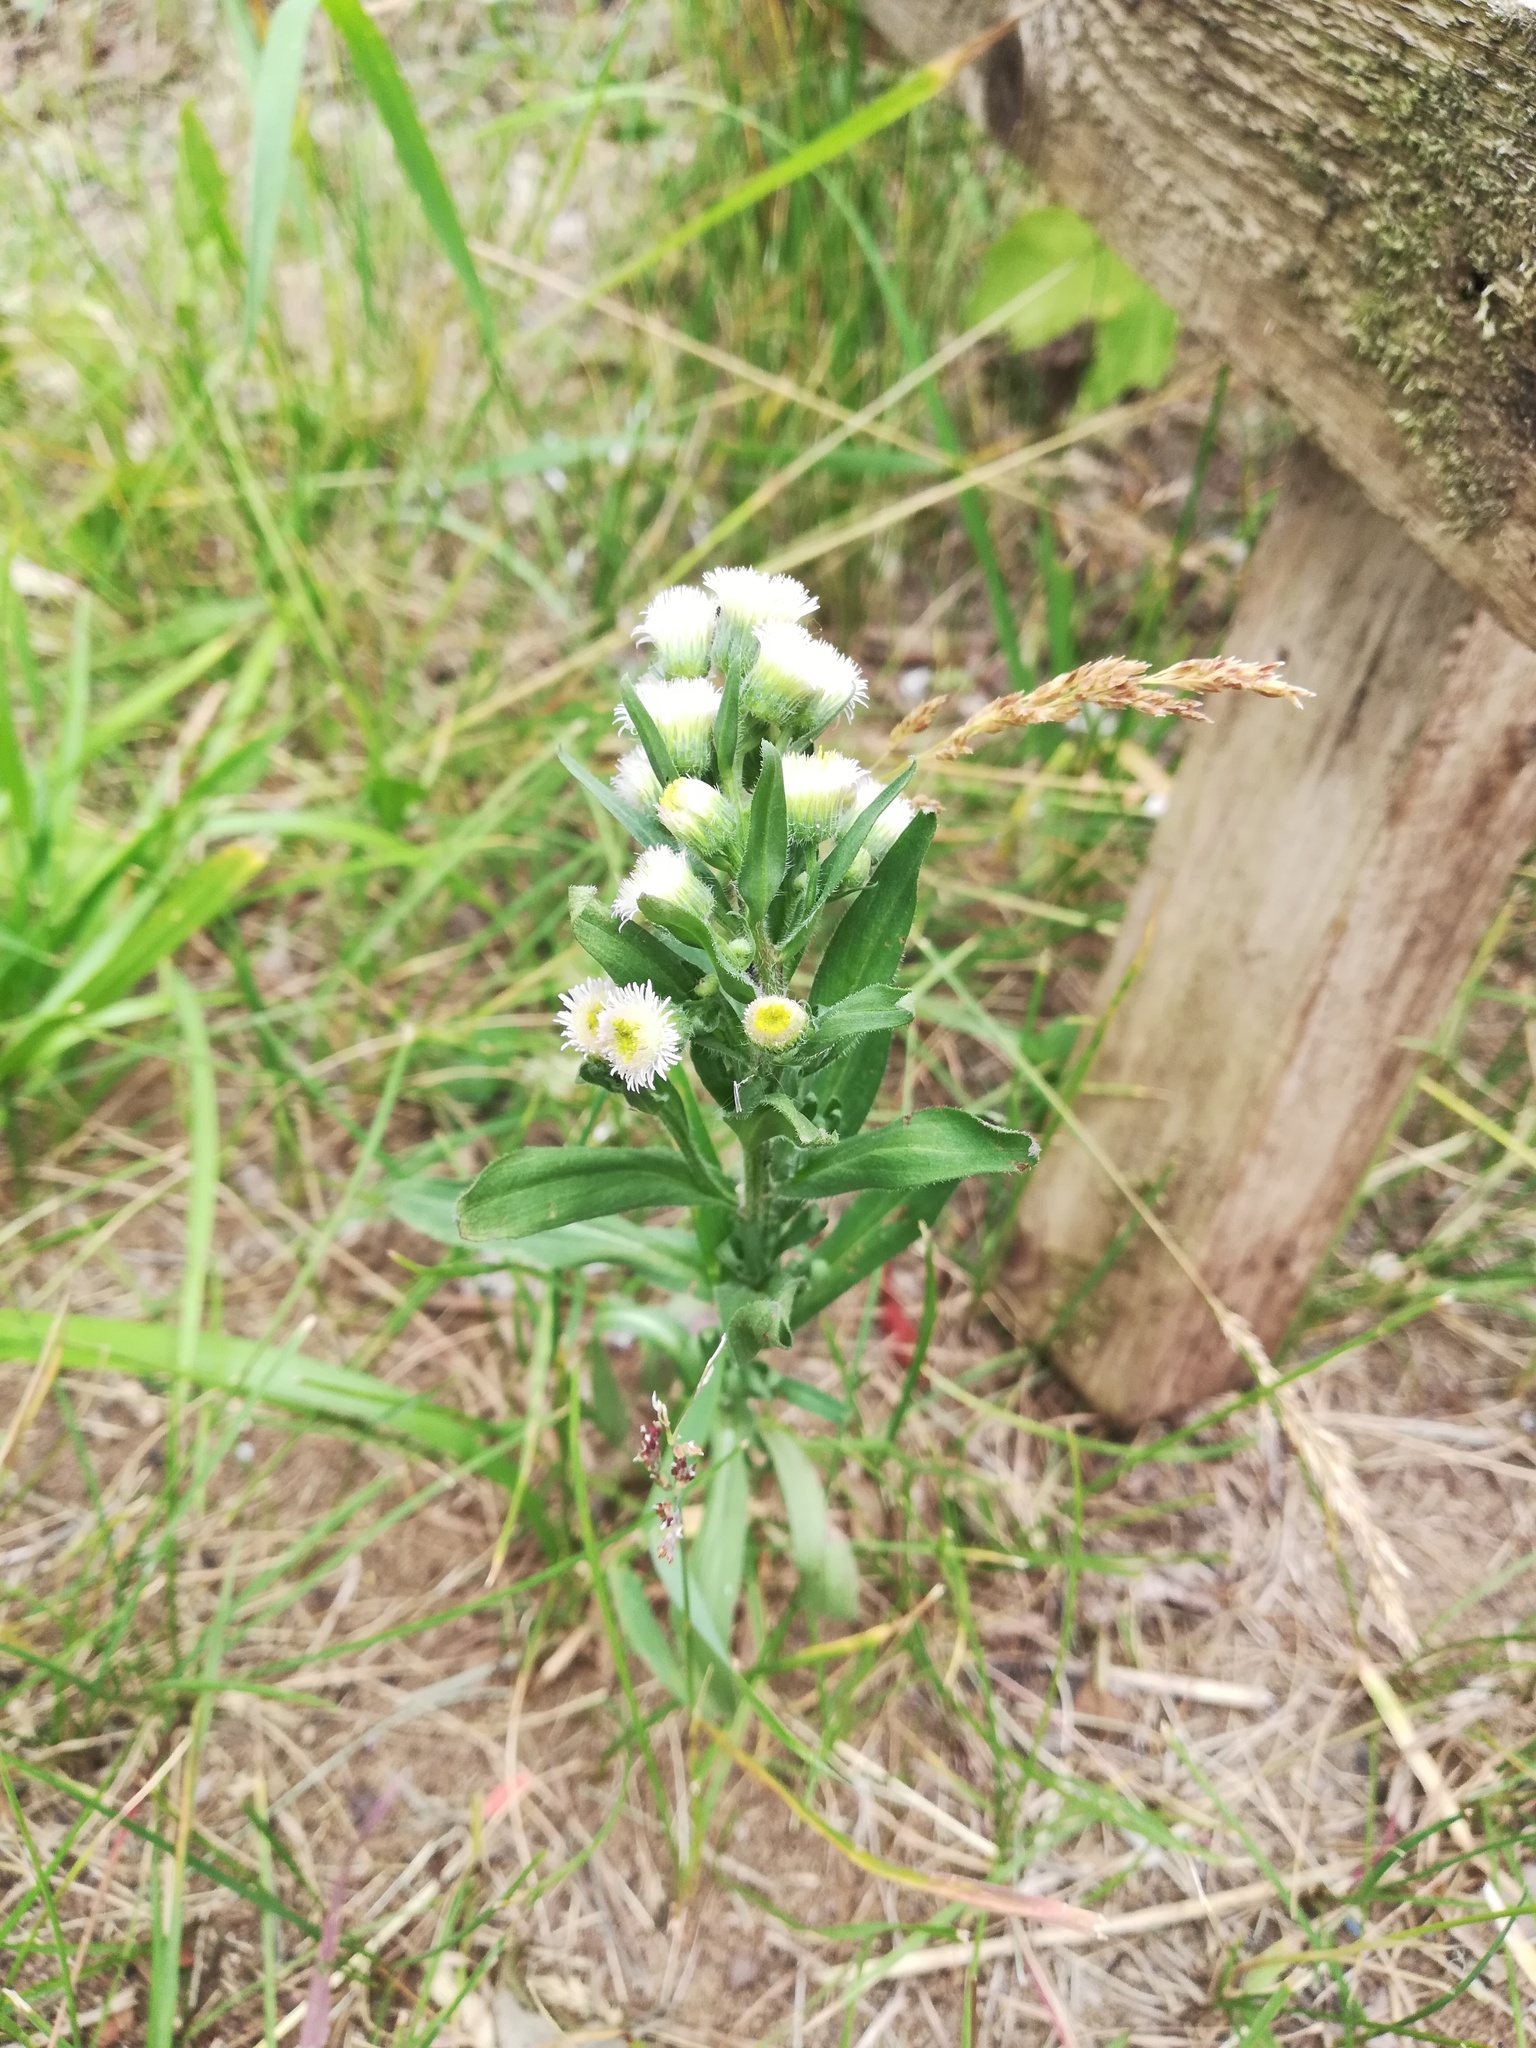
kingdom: Plantae
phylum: Tracheophyta
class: Magnoliopsida
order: Asterales
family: Asteraceae
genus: Erigeron
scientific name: Erigeron acris
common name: Blue fleabane
